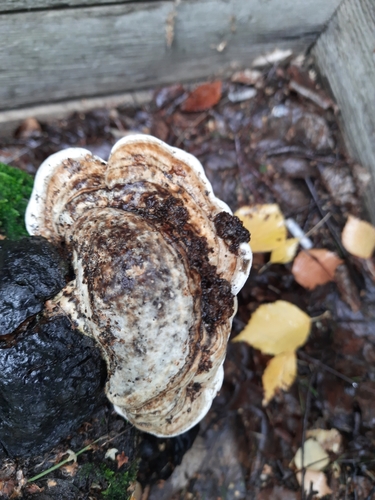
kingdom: Fungi
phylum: Basidiomycota
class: Agaricomycetes
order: Polyporales
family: Polyporaceae
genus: Fomes
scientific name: Fomes fomentarius
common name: Hoof fungus
